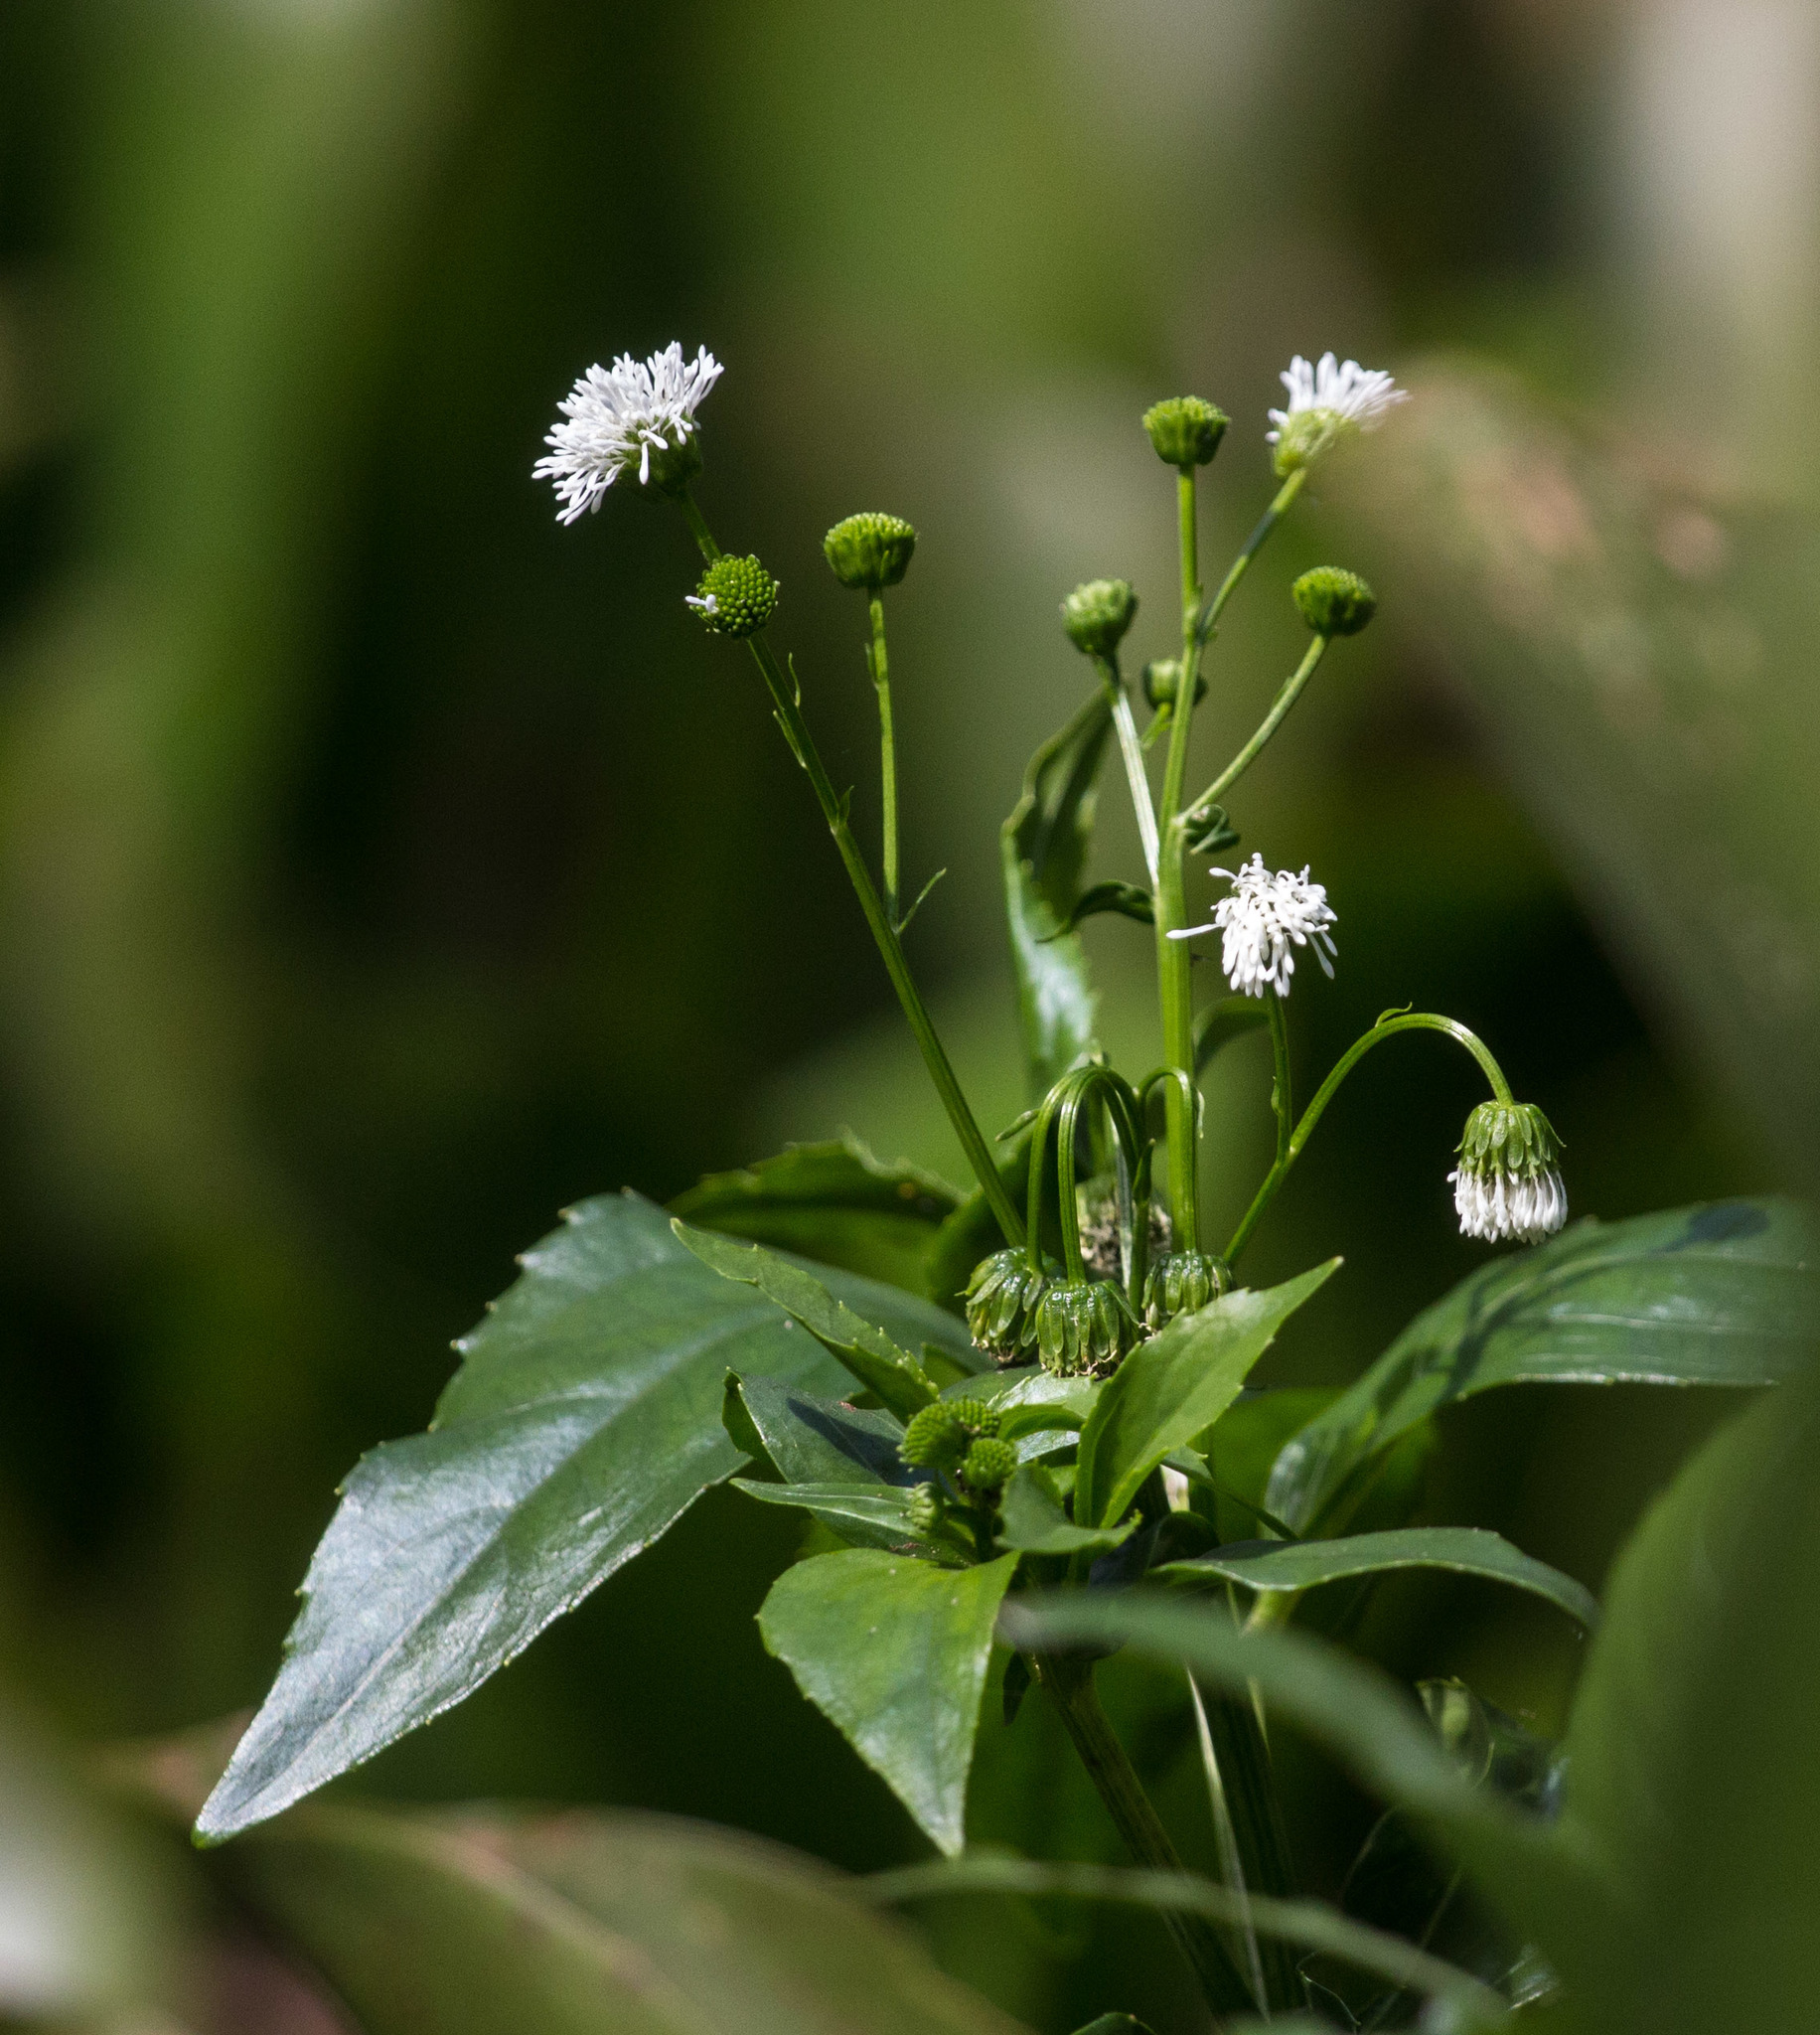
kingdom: Plantae
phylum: Tracheophyta
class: Magnoliopsida
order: Asterales
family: Asteraceae
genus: Gymnocoronis
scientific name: Gymnocoronis latifolia
